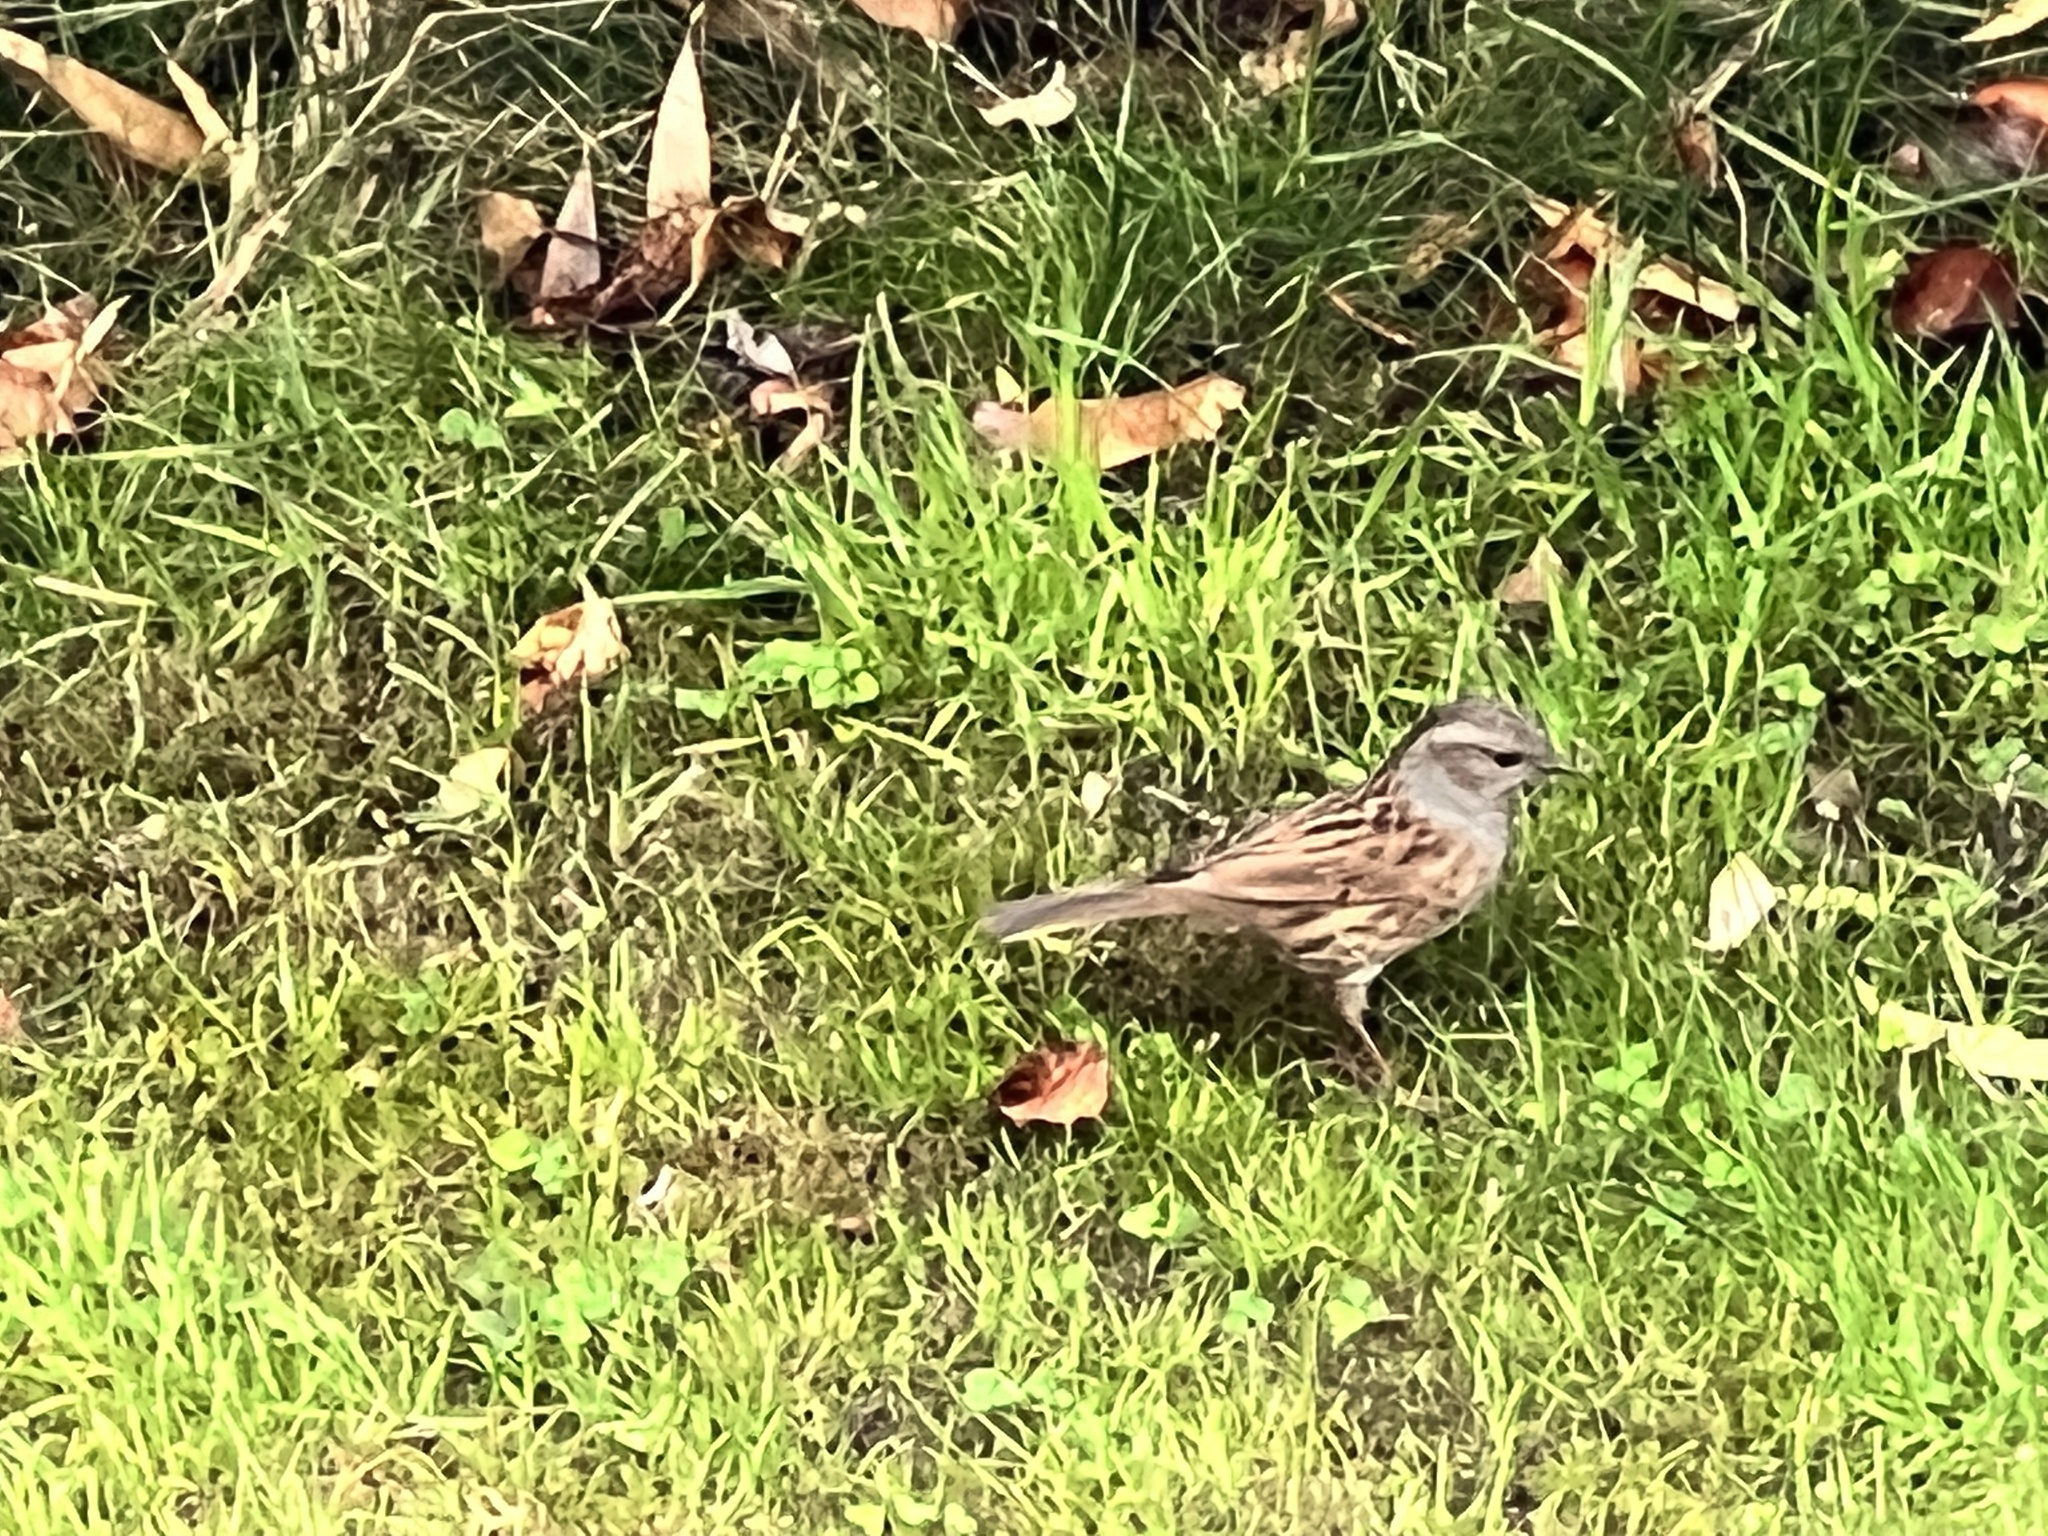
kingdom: Animalia
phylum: Chordata
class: Aves
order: Passeriformes
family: Prunellidae
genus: Prunella
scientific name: Prunella modularis
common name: Dunnock
